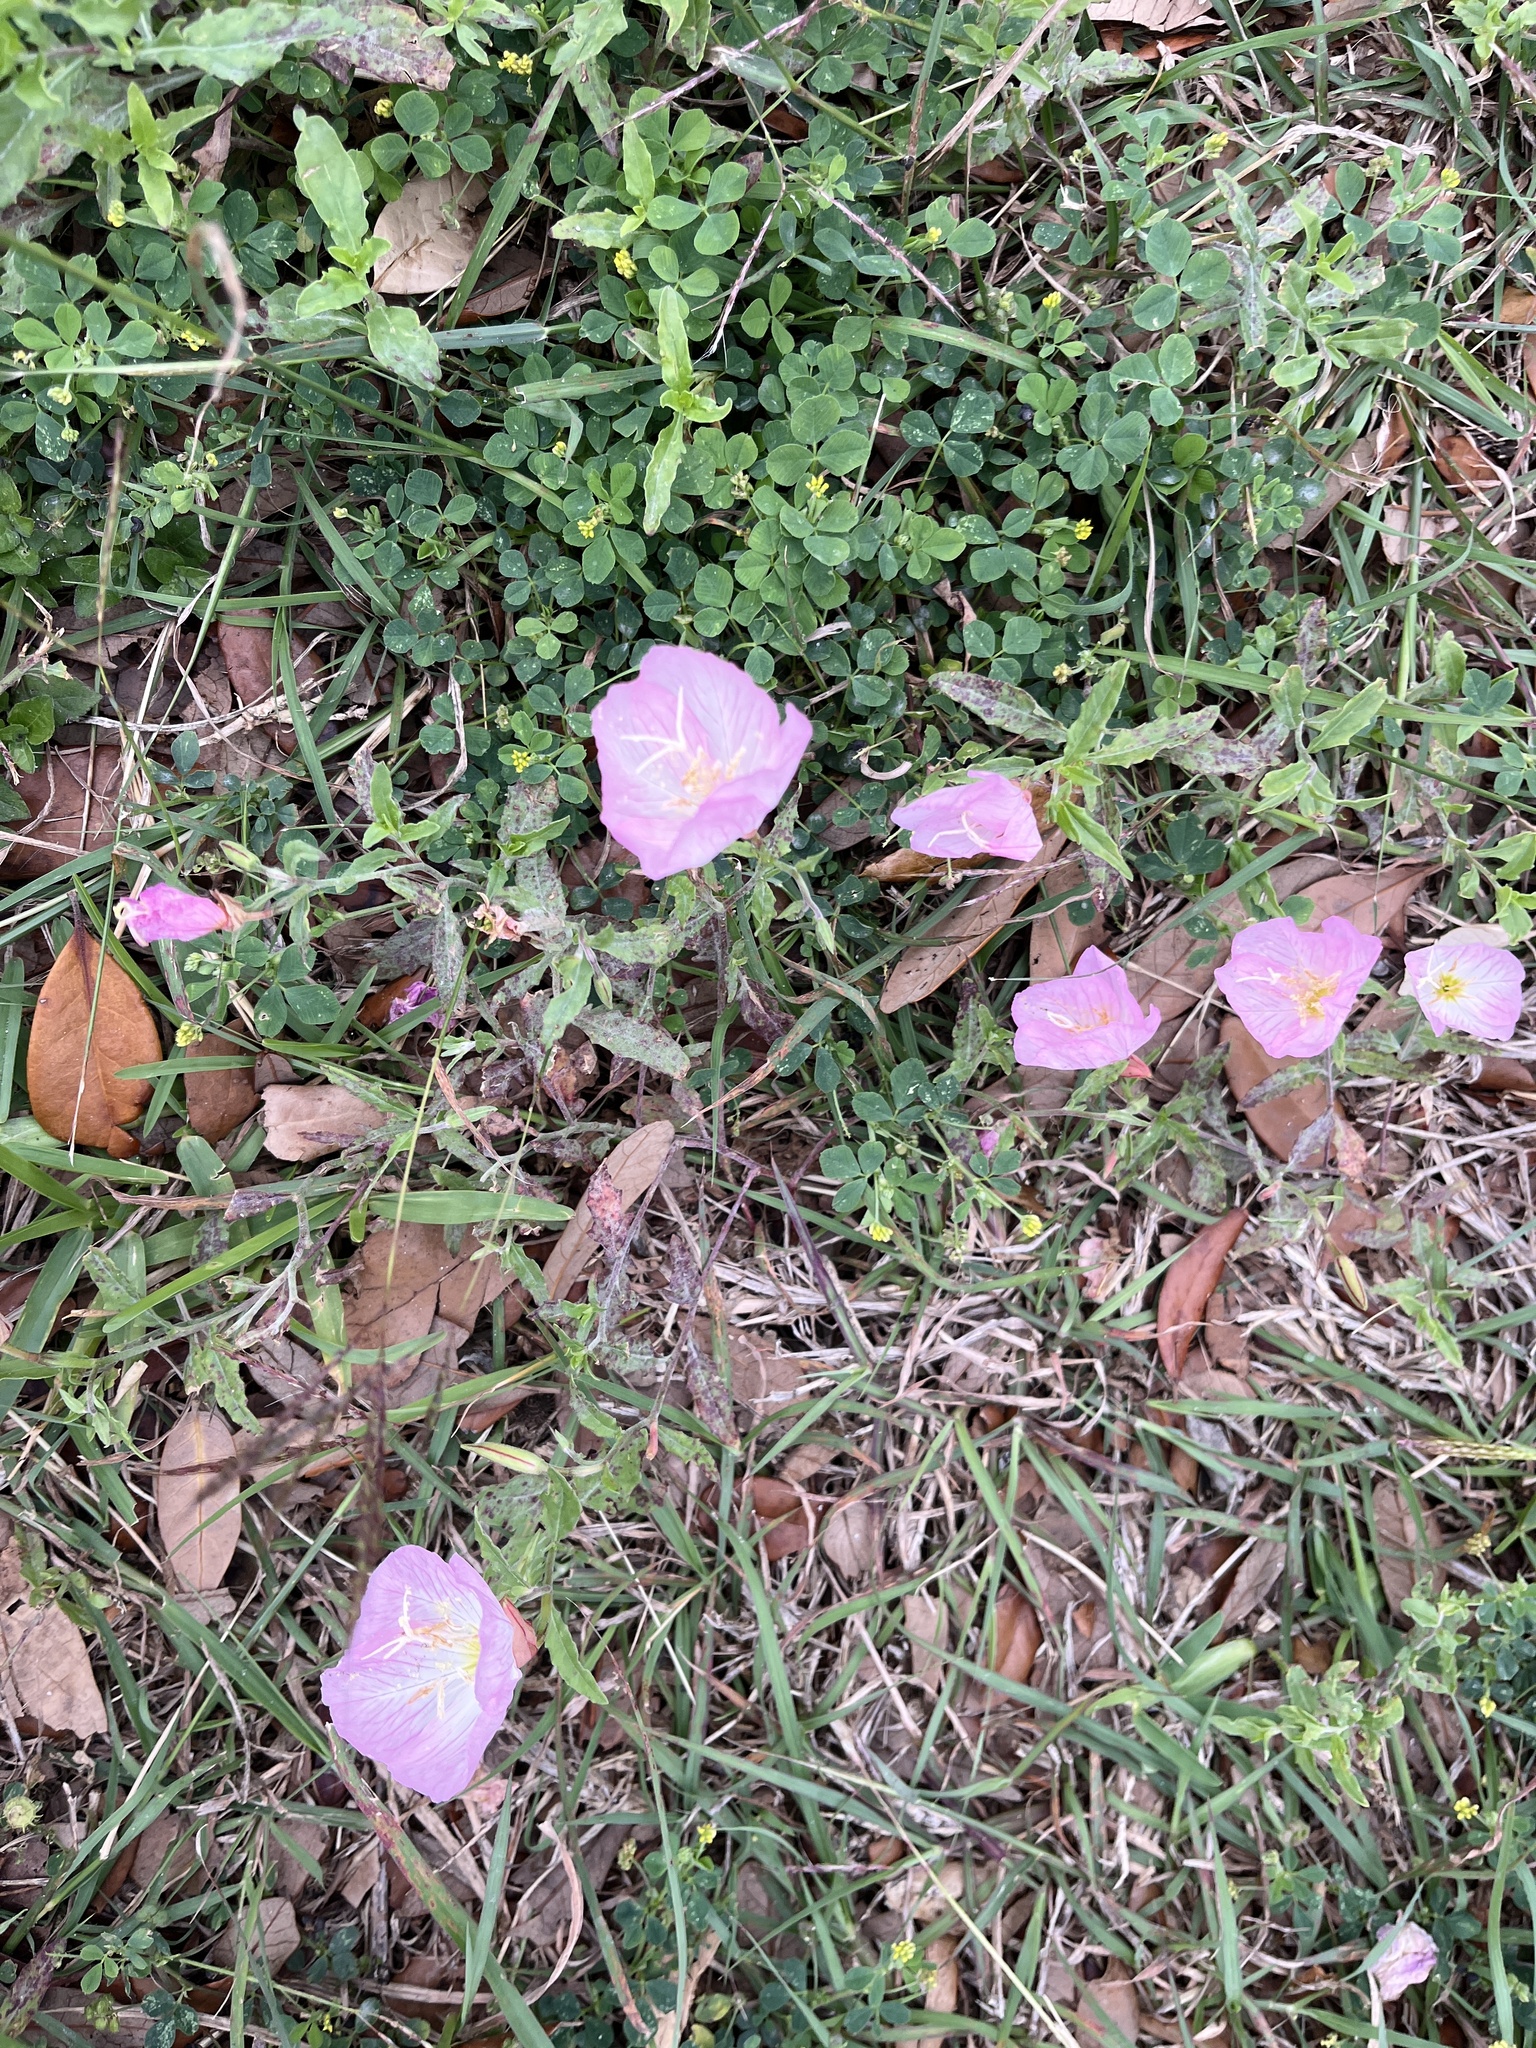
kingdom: Plantae
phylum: Tracheophyta
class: Magnoliopsida
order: Myrtales
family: Onagraceae
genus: Oenothera
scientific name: Oenothera speciosa
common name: White evening-primrose
